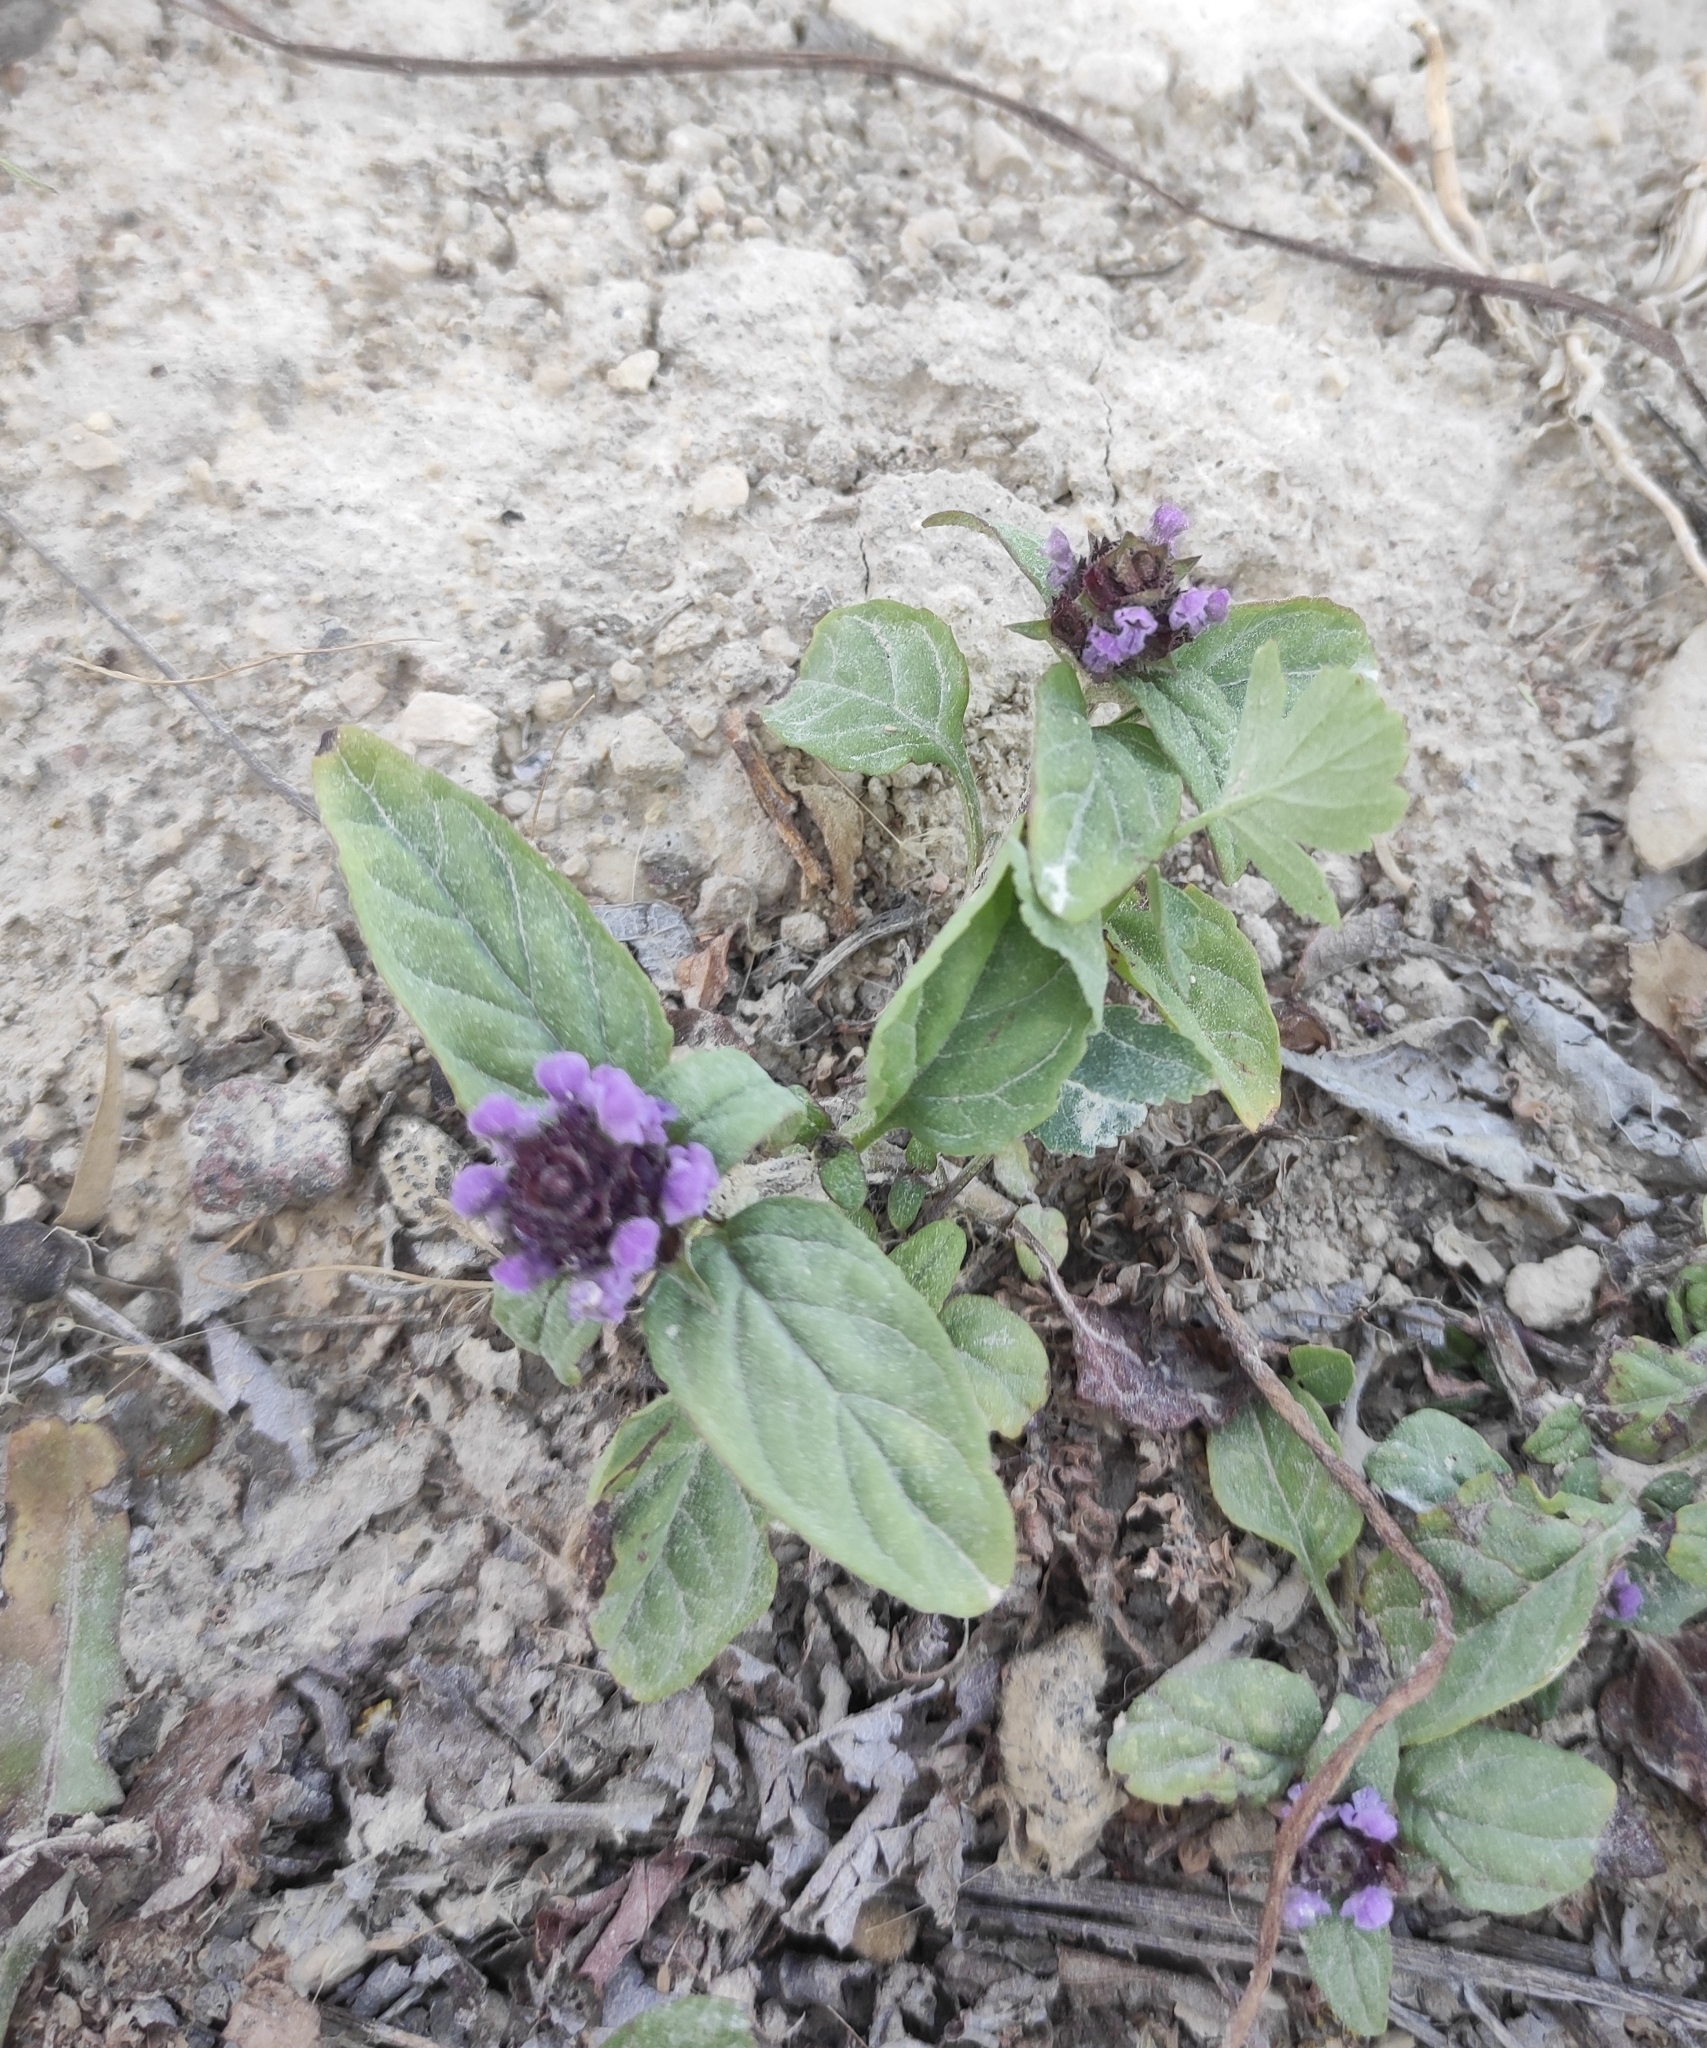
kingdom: Plantae
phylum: Tracheophyta
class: Magnoliopsida
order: Lamiales
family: Lamiaceae
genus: Prunella
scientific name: Prunella vulgaris
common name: Heal-all
